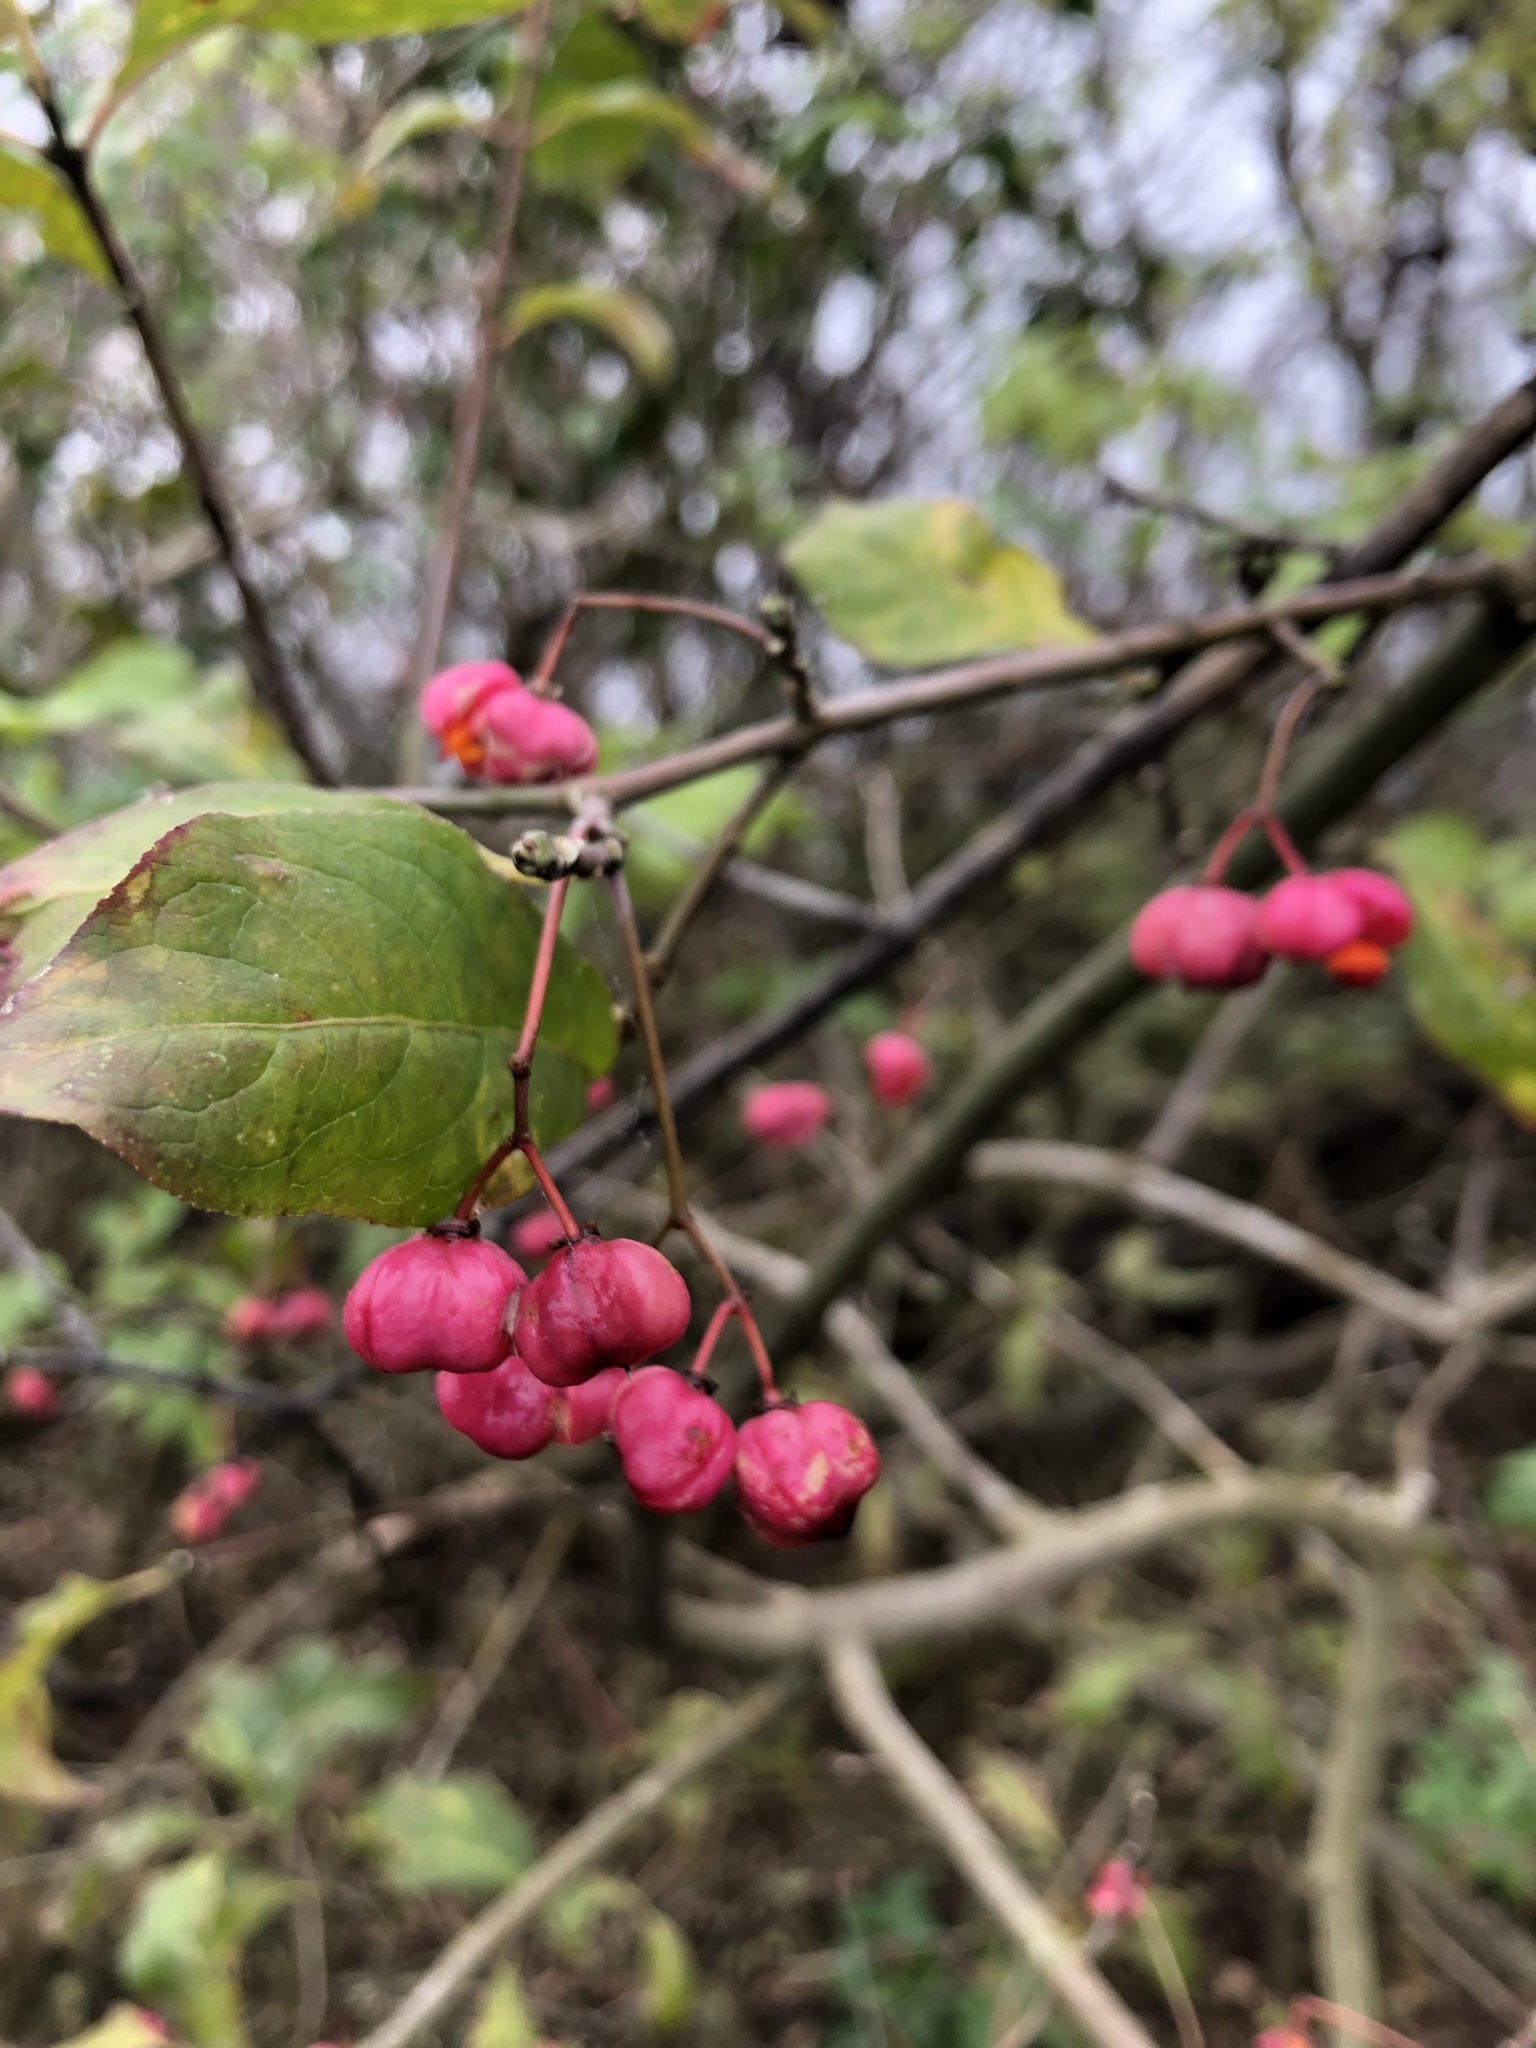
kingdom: Plantae
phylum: Tracheophyta
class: Magnoliopsida
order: Celastrales
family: Celastraceae
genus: Euonymus
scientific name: Euonymus europaeus
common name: Spindle
